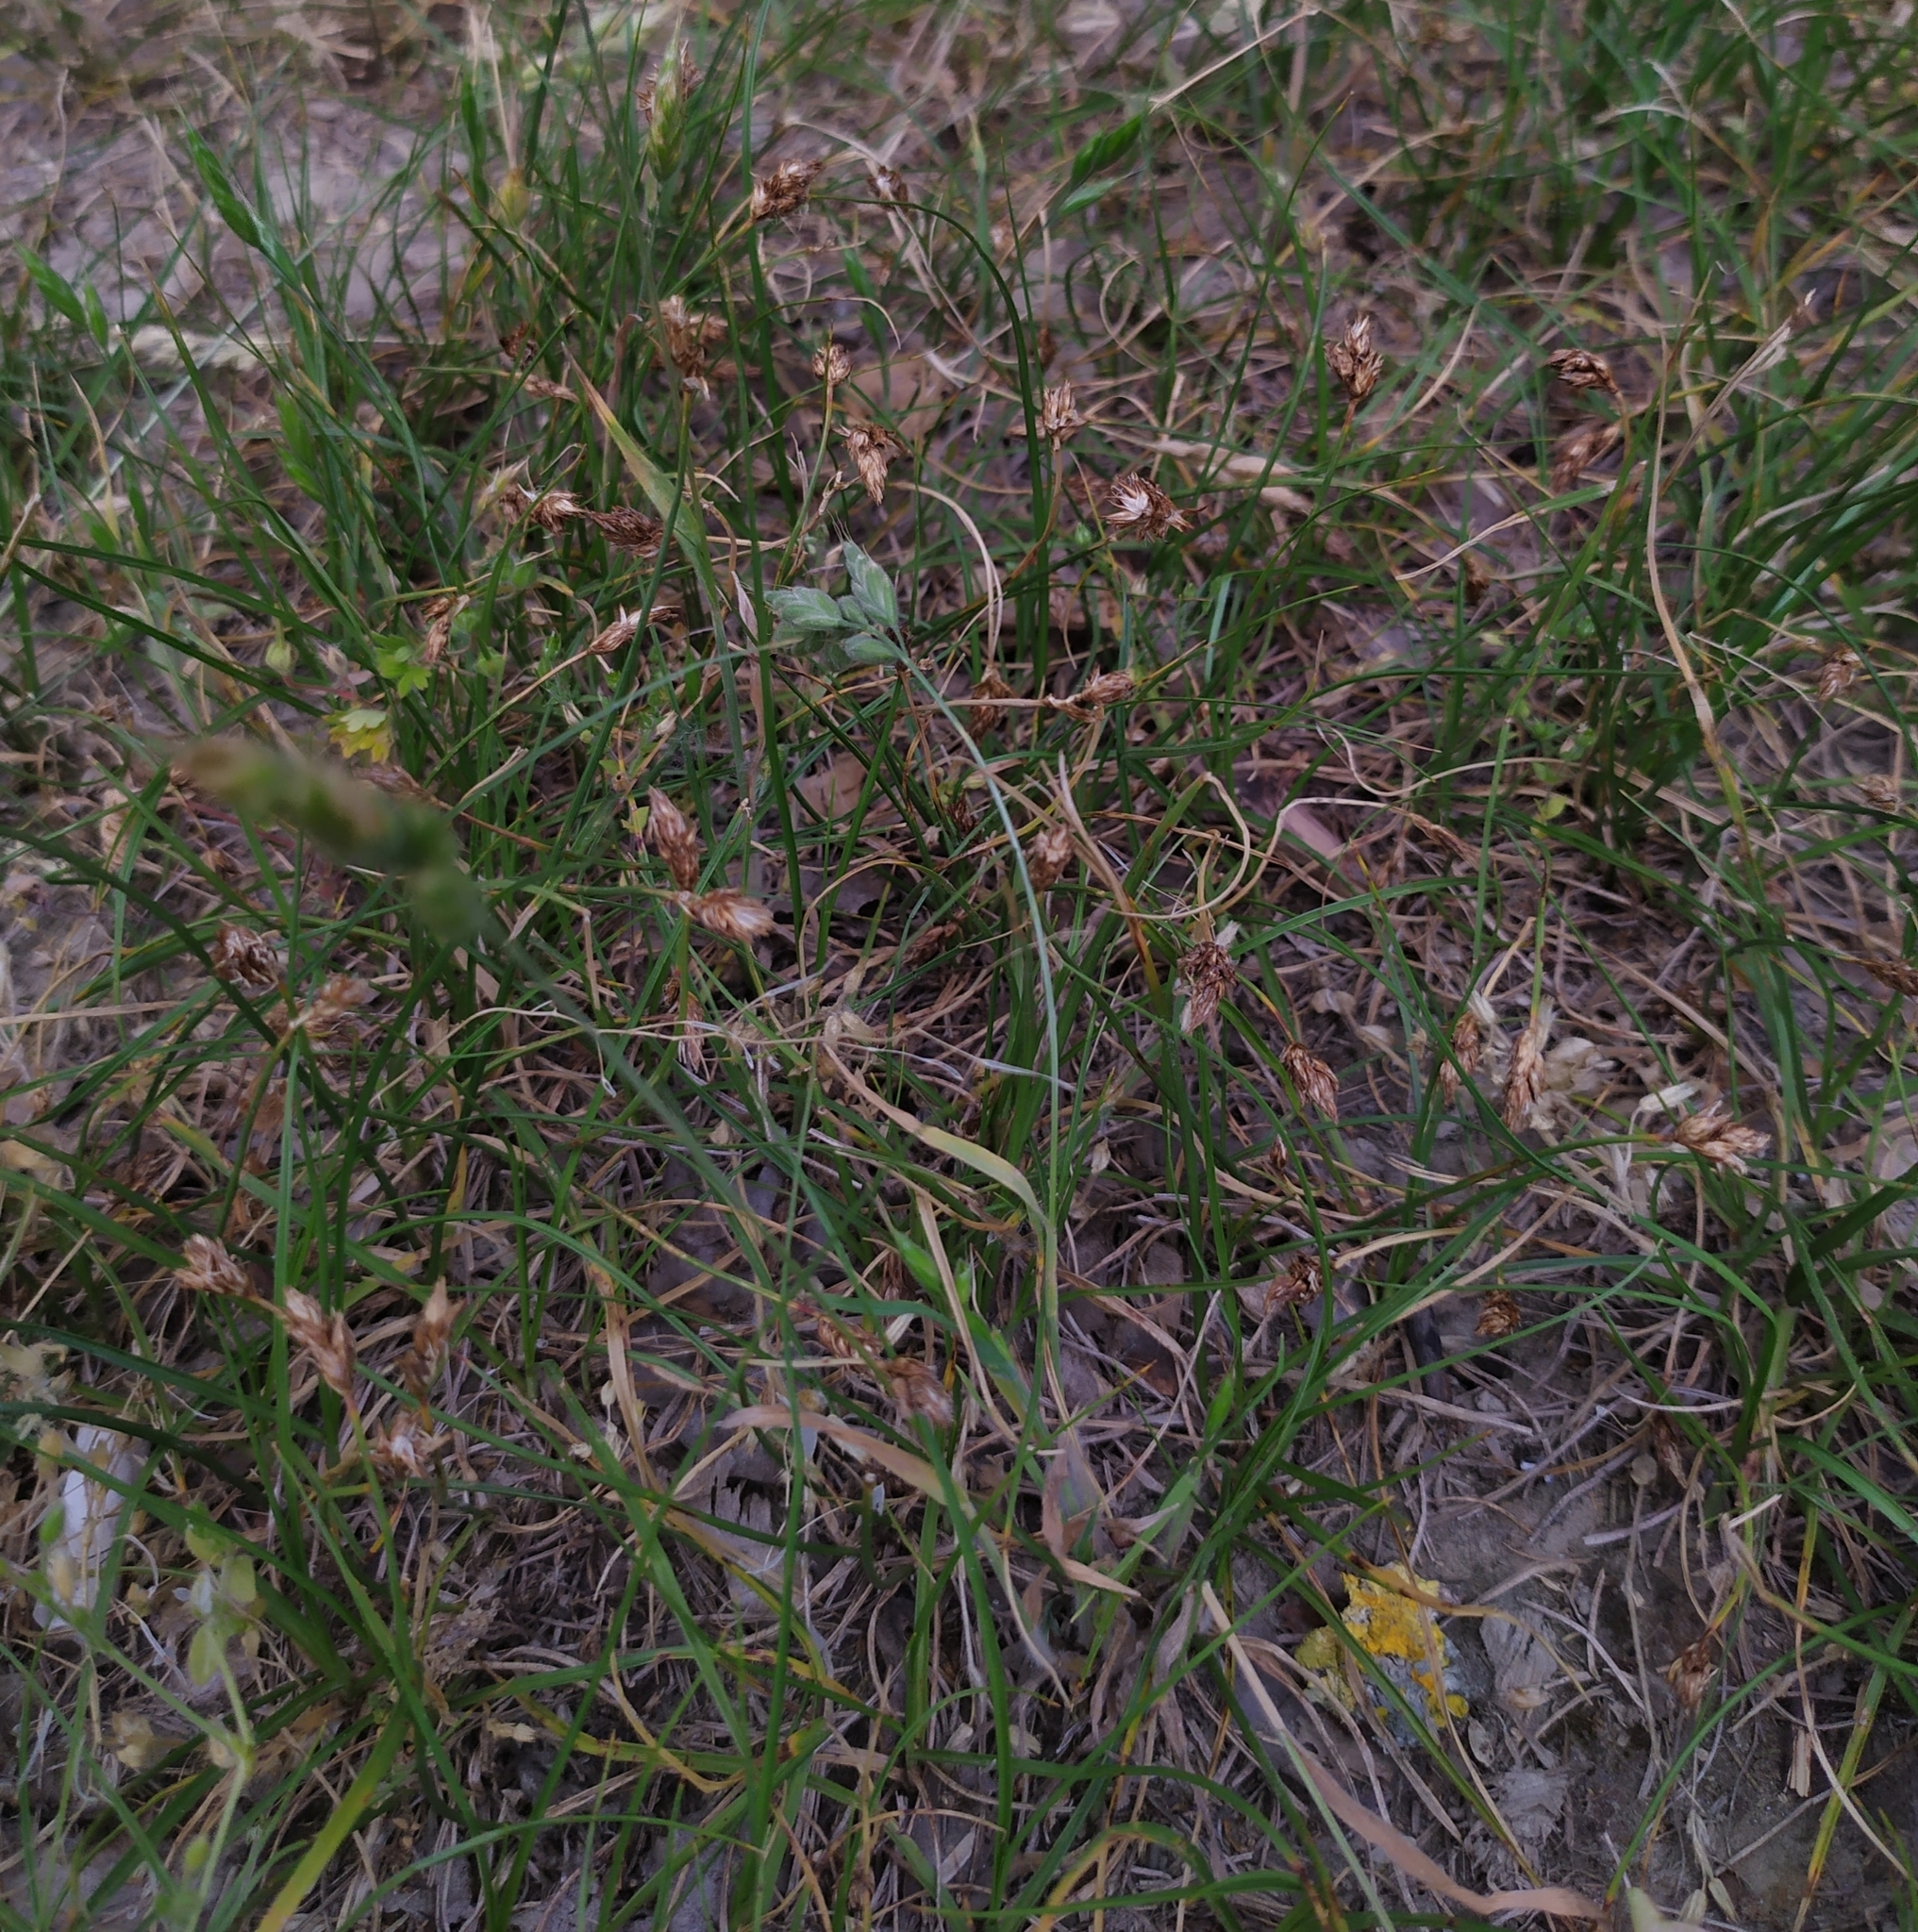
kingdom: Plantae
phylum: Tracheophyta
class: Liliopsida
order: Poales
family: Cyperaceae
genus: Carex
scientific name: Carex stenophylla
